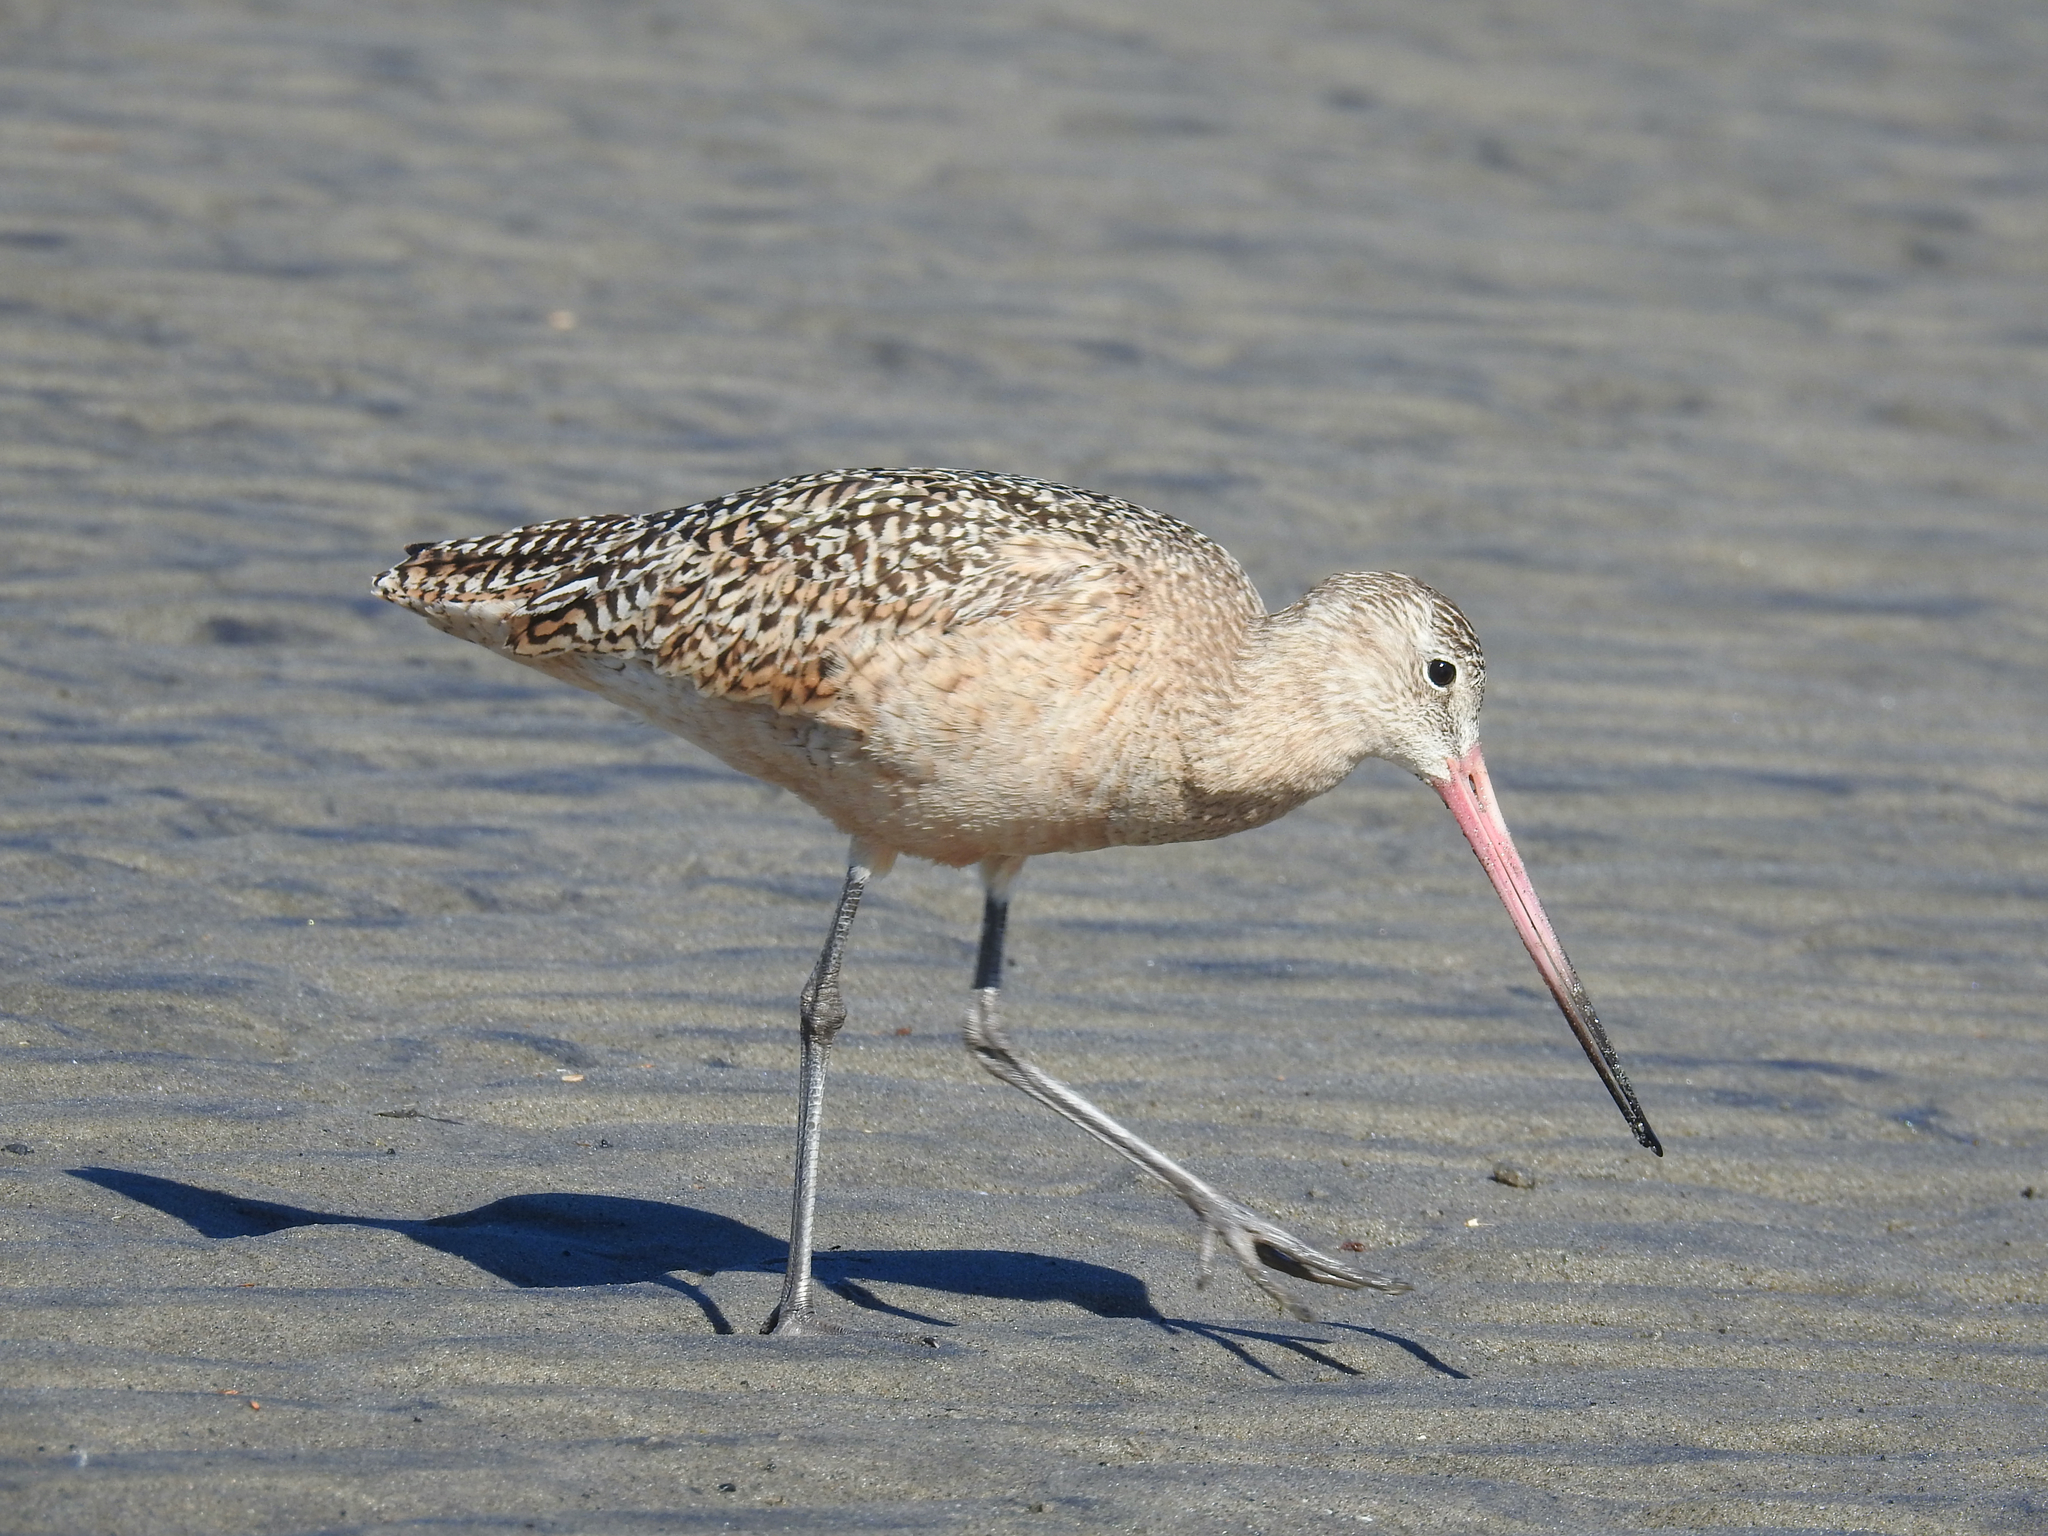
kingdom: Animalia
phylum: Chordata
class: Aves
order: Charadriiformes
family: Scolopacidae
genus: Limosa
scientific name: Limosa fedoa
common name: Marbled godwit
